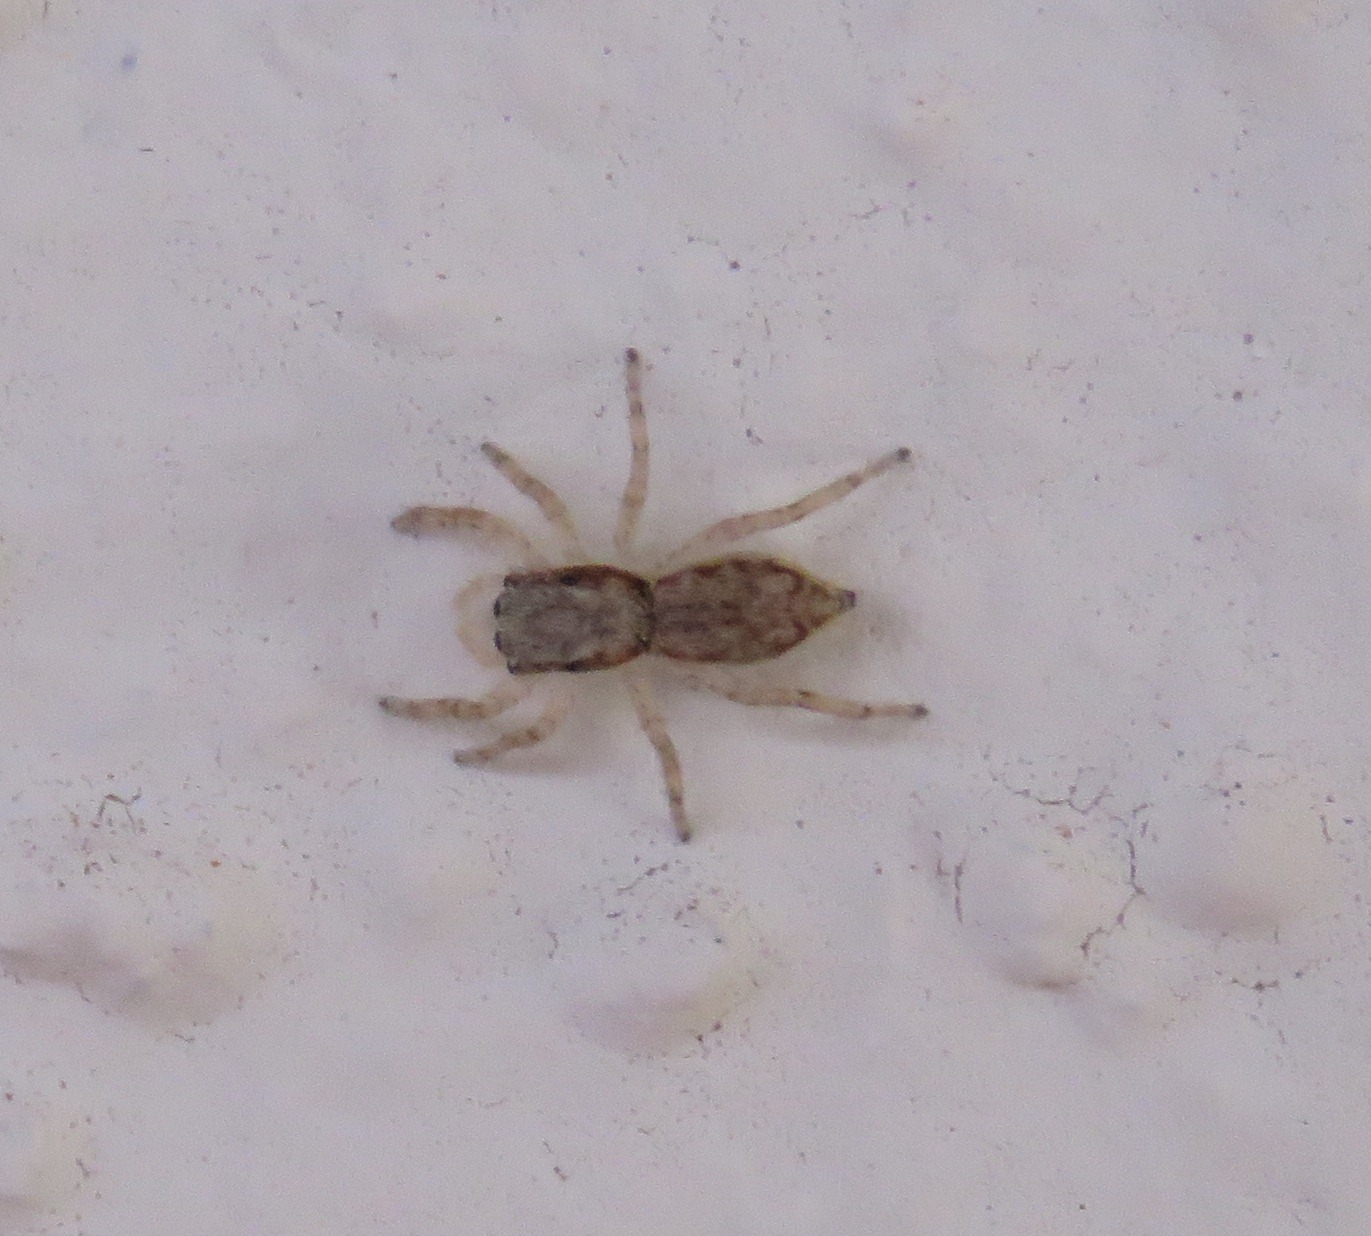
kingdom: Animalia
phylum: Arthropoda
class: Arachnida
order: Araneae
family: Salticidae
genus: Menemerus
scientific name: Menemerus bivittatus
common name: Gray wall jumper
